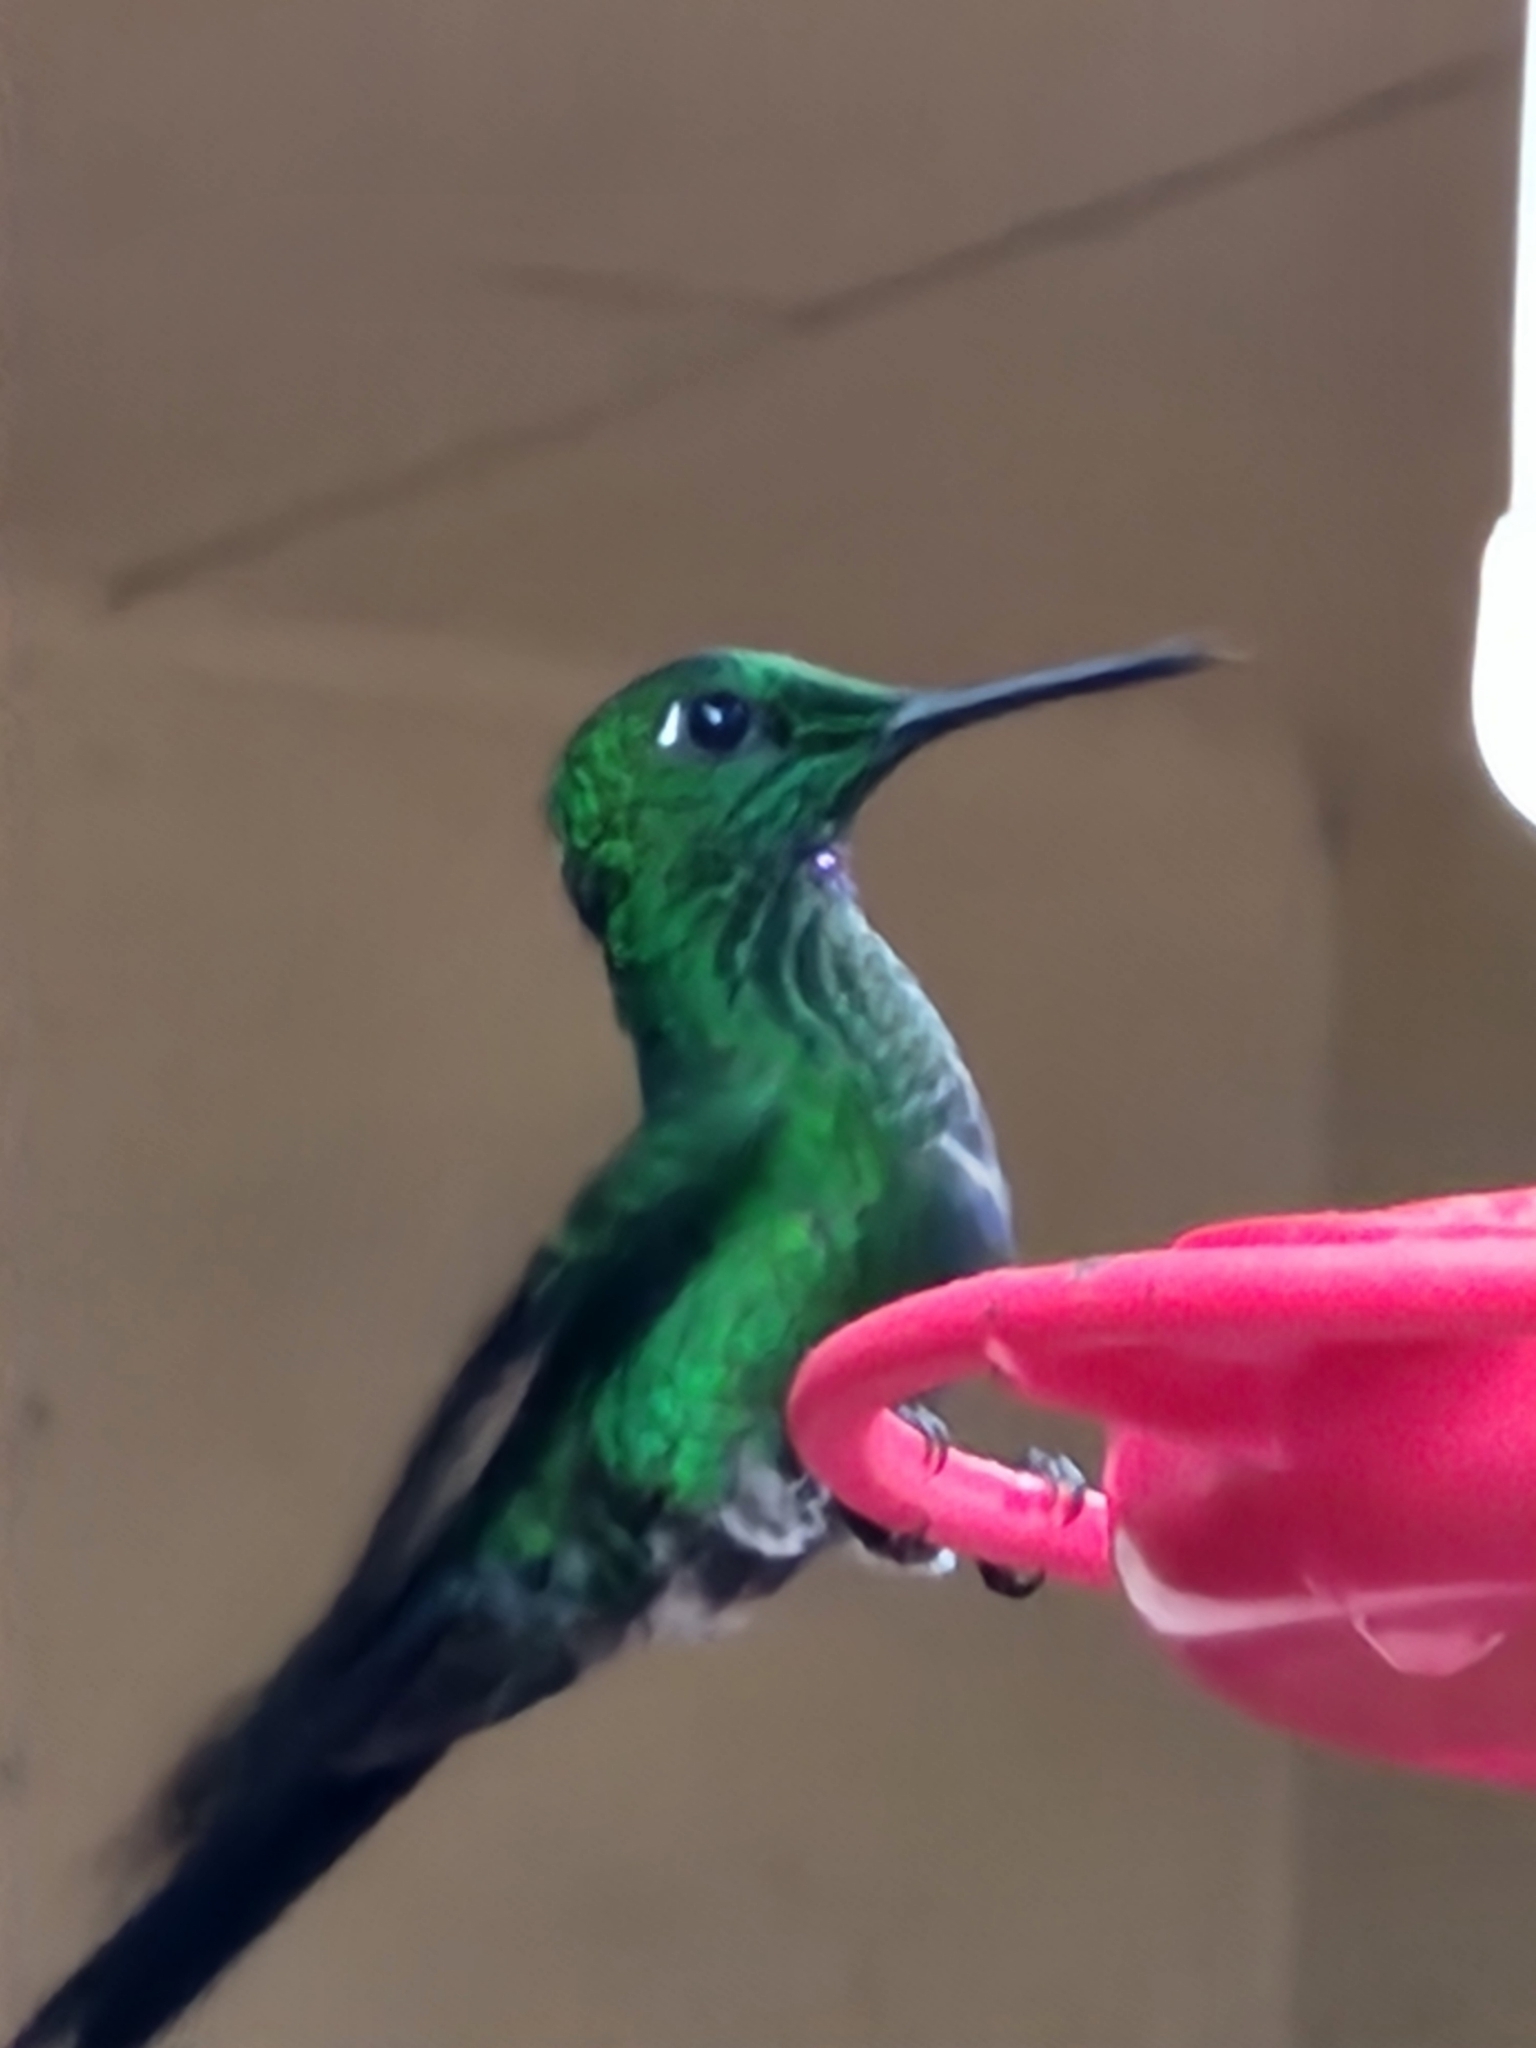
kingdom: Animalia
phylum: Chordata
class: Aves
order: Apodiformes
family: Trochilidae
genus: Heliodoxa
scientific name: Heliodoxa jacula
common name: Green-crowned brilliant
